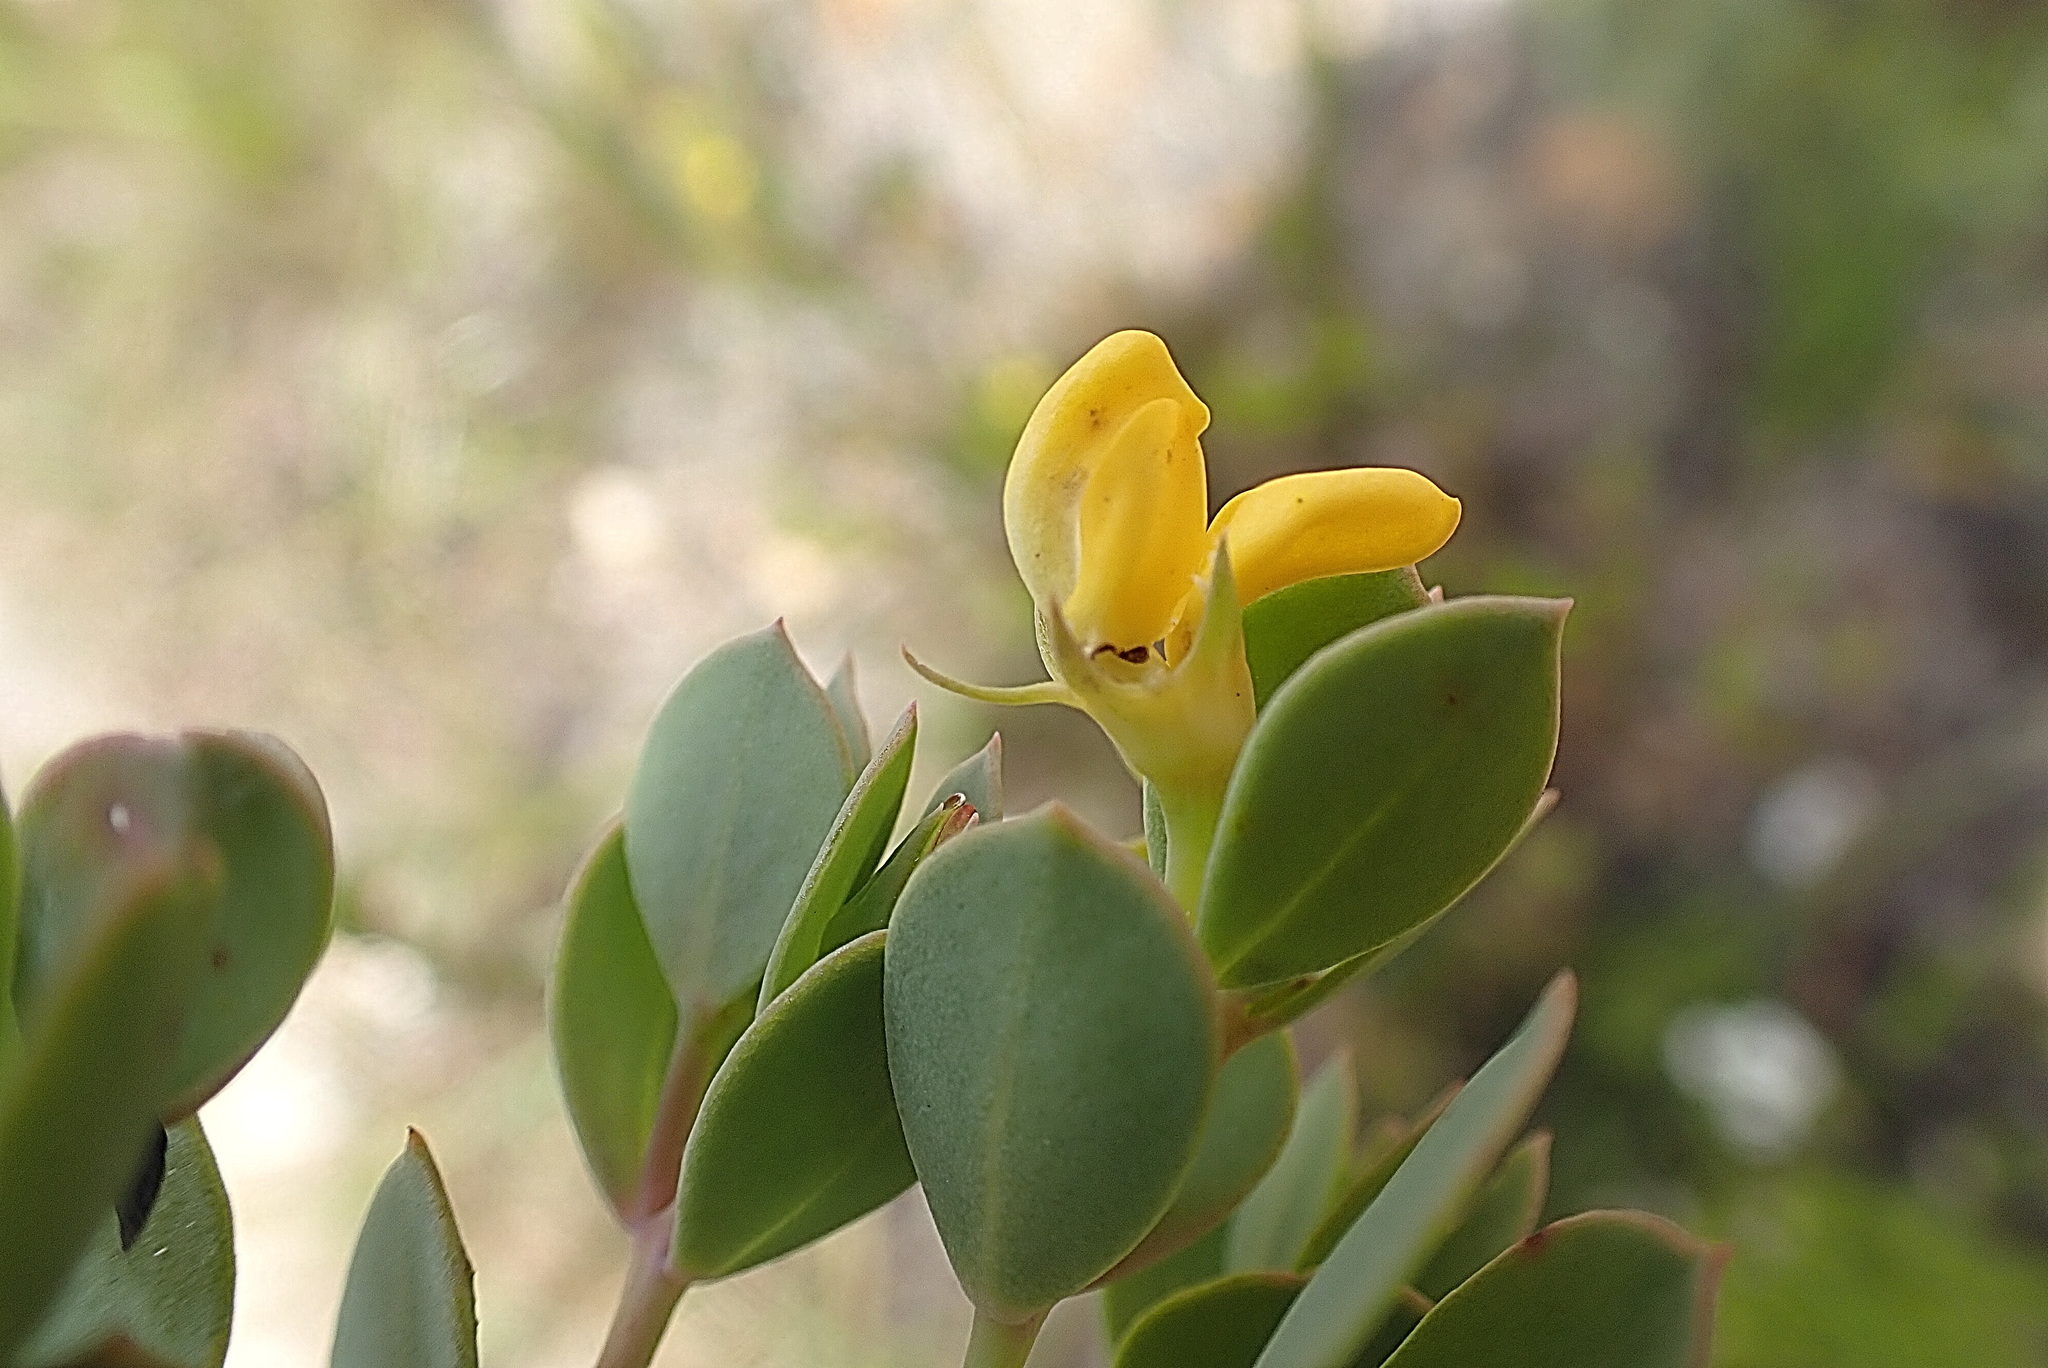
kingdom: Plantae
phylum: Tracheophyta
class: Magnoliopsida
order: Fabales
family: Fabaceae
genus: Rafnia
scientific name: Rafnia capensis
